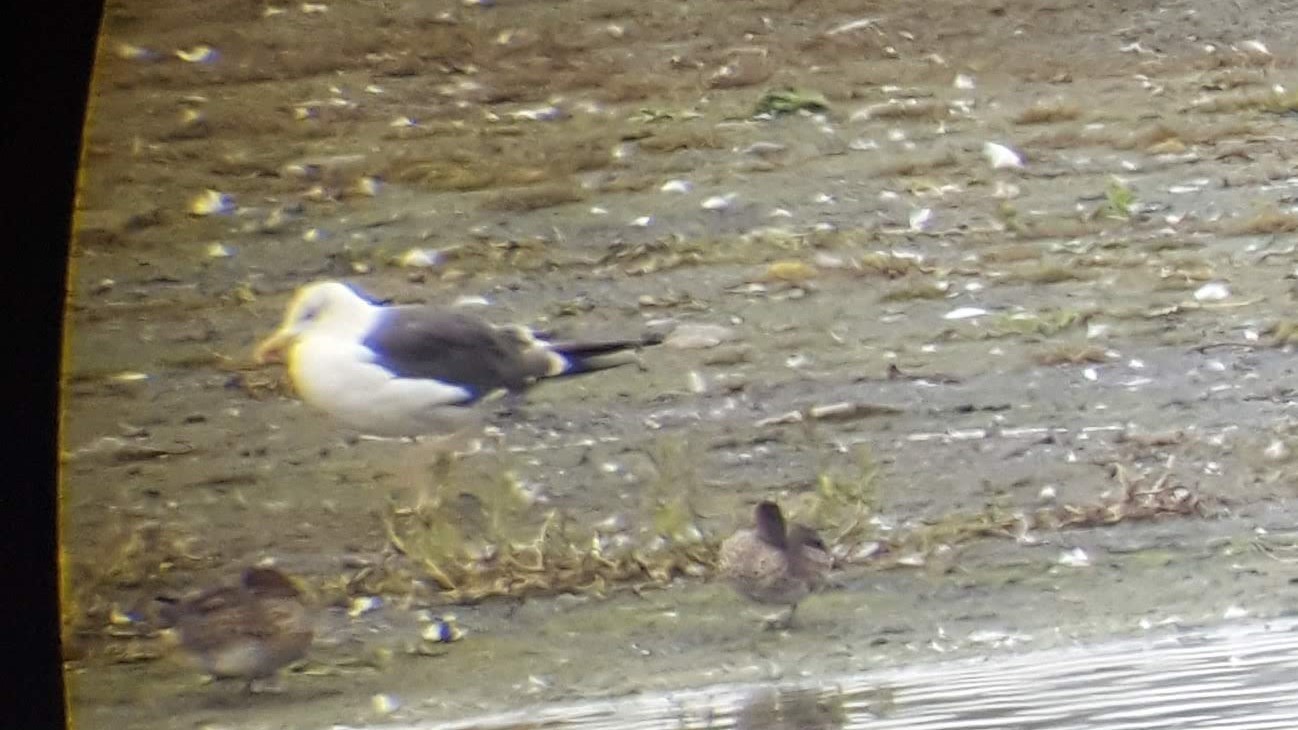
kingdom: Animalia
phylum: Chordata
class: Aves
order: Charadriiformes
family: Laridae
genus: Larus
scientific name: Larus fuscus
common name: Lesser black-backed gull
